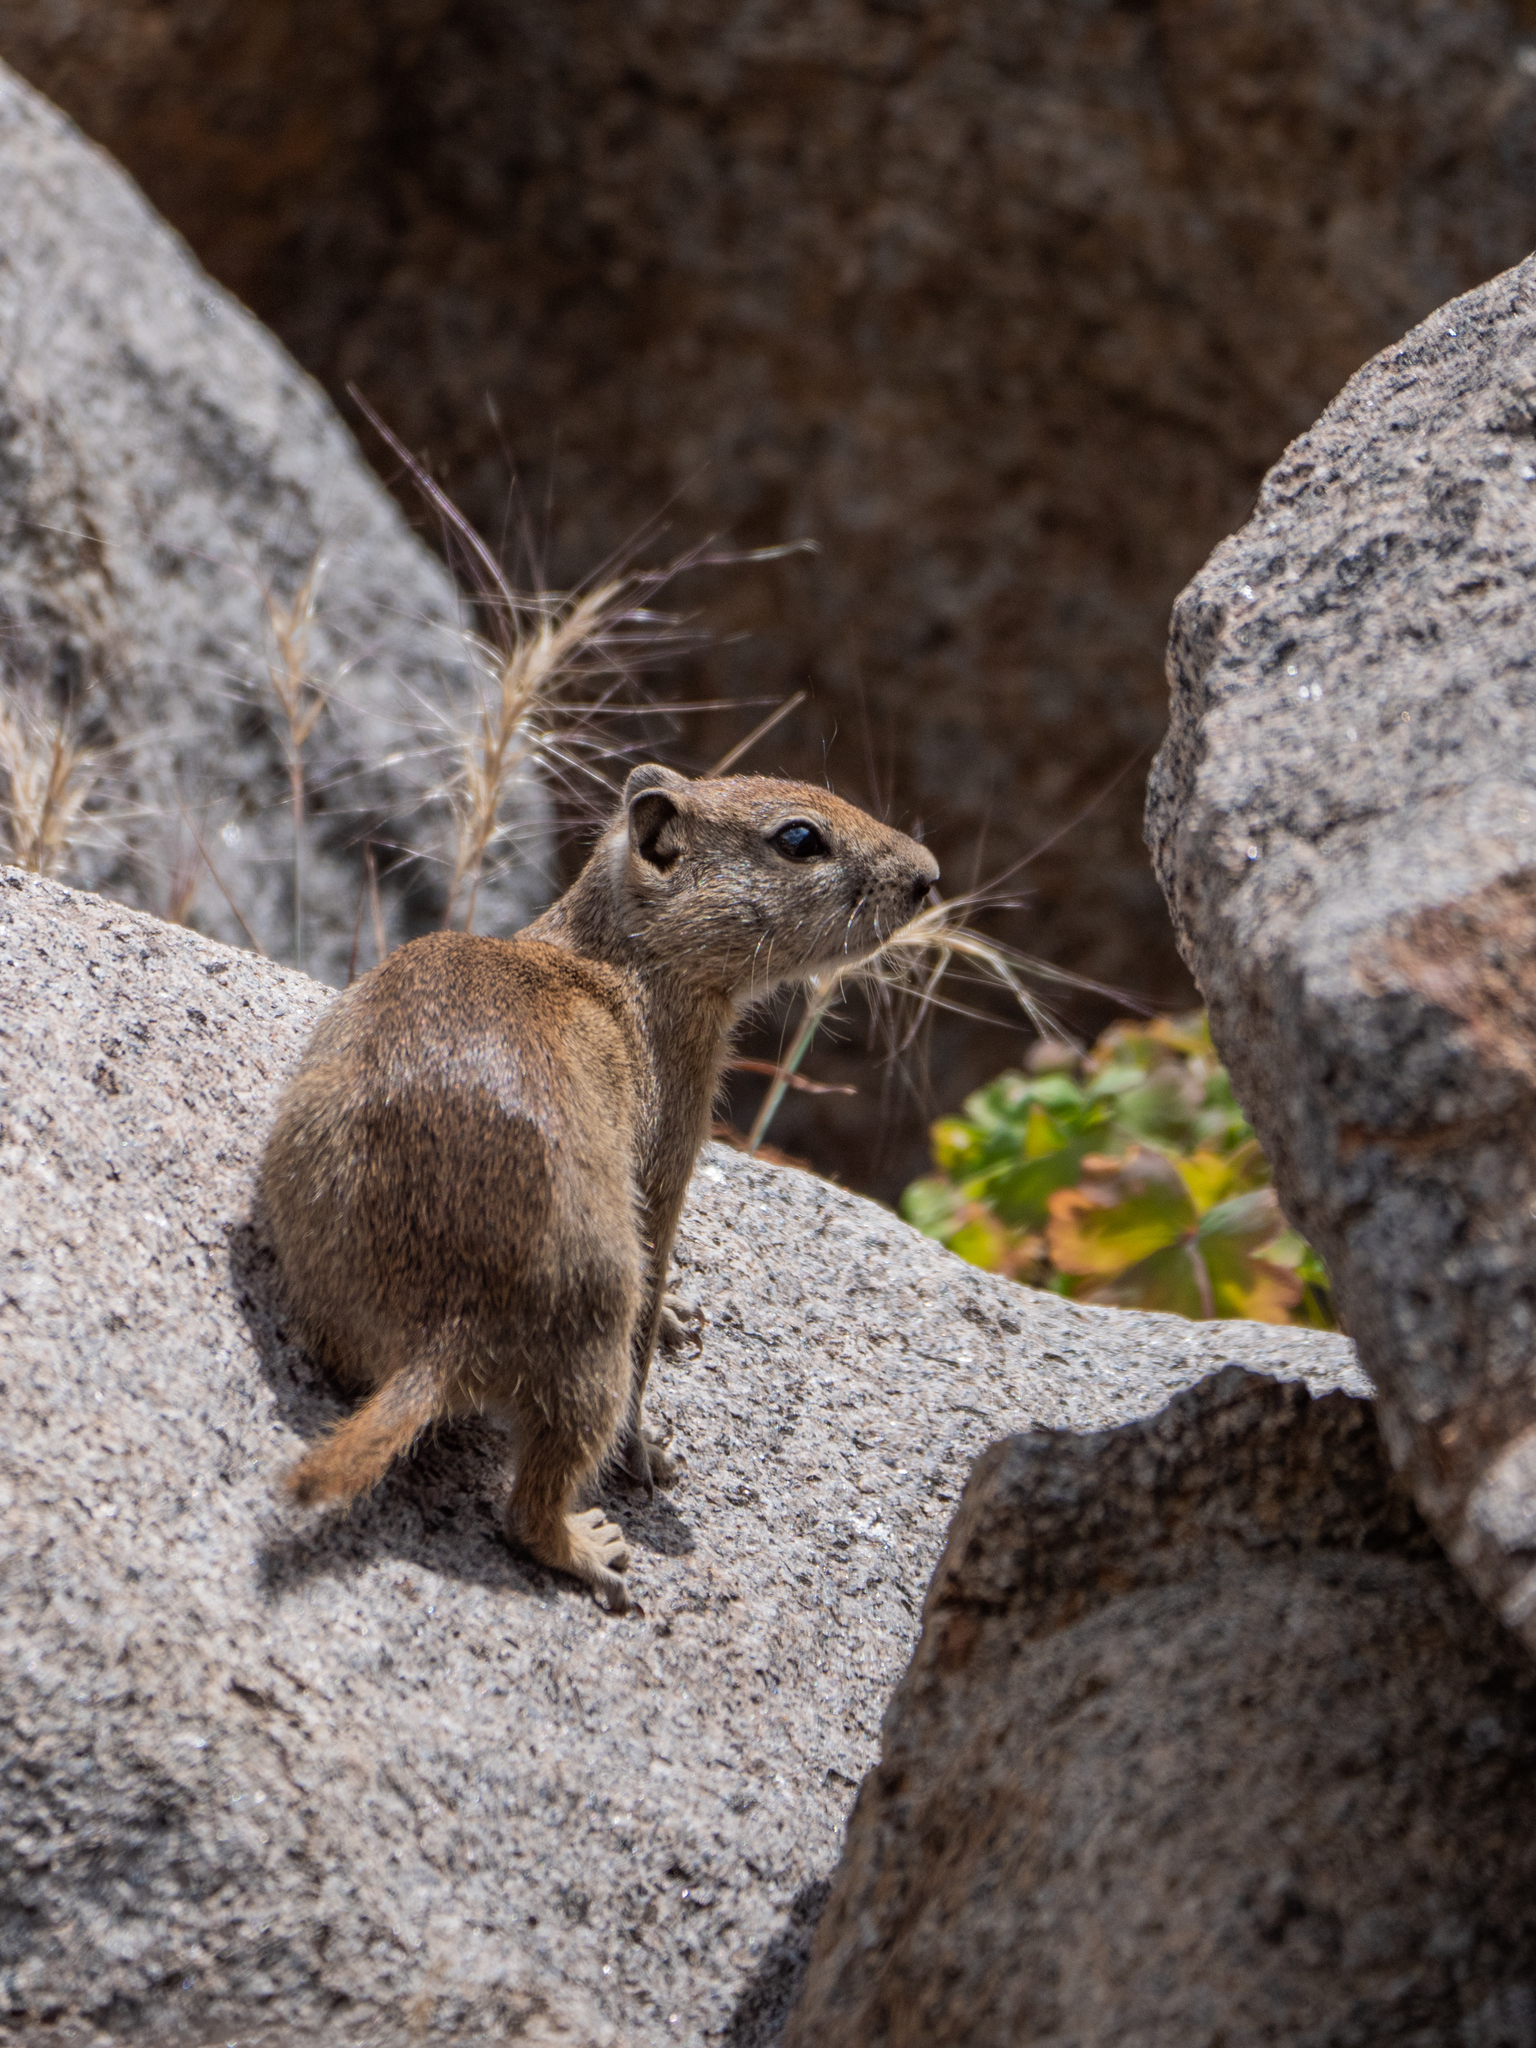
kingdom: Animalia
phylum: Chordata
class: Mammalia
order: Rodentia
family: Sciuridae
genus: Urocitellus
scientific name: Urocitellus beldingi
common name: Belding's ground squirrel
